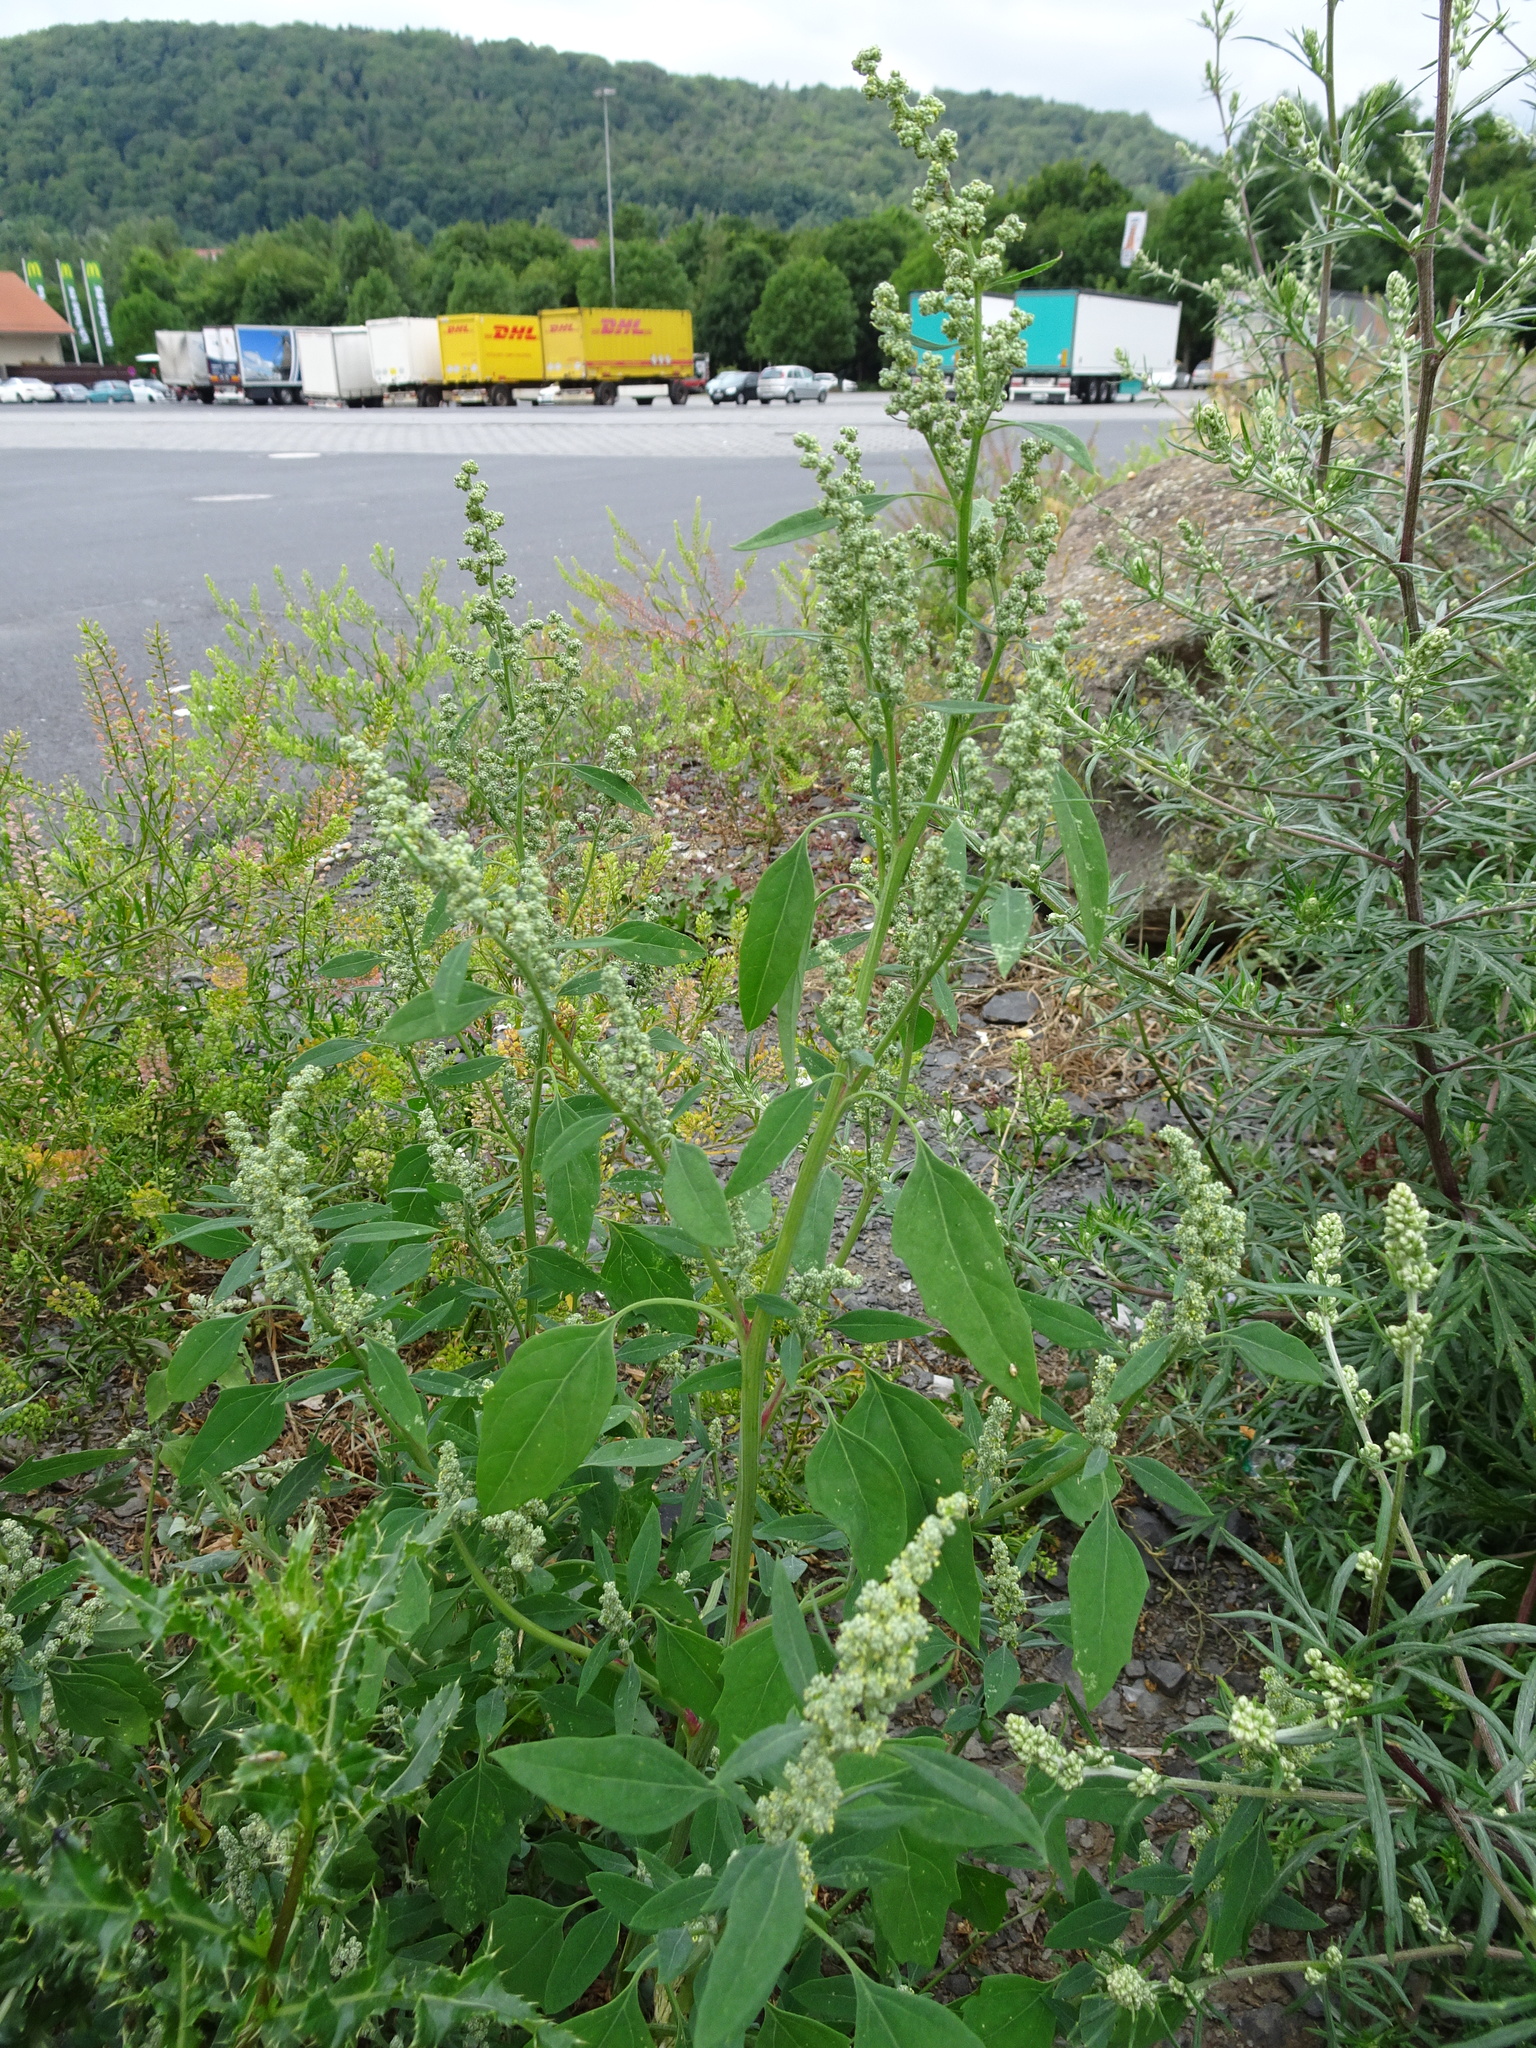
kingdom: Plantae
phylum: Tracheophyta
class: Magnoliopsida
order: Caryophyllales
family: Amaranthaceae
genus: Chenopodium
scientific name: Chenopodium album
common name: Fat-hen
